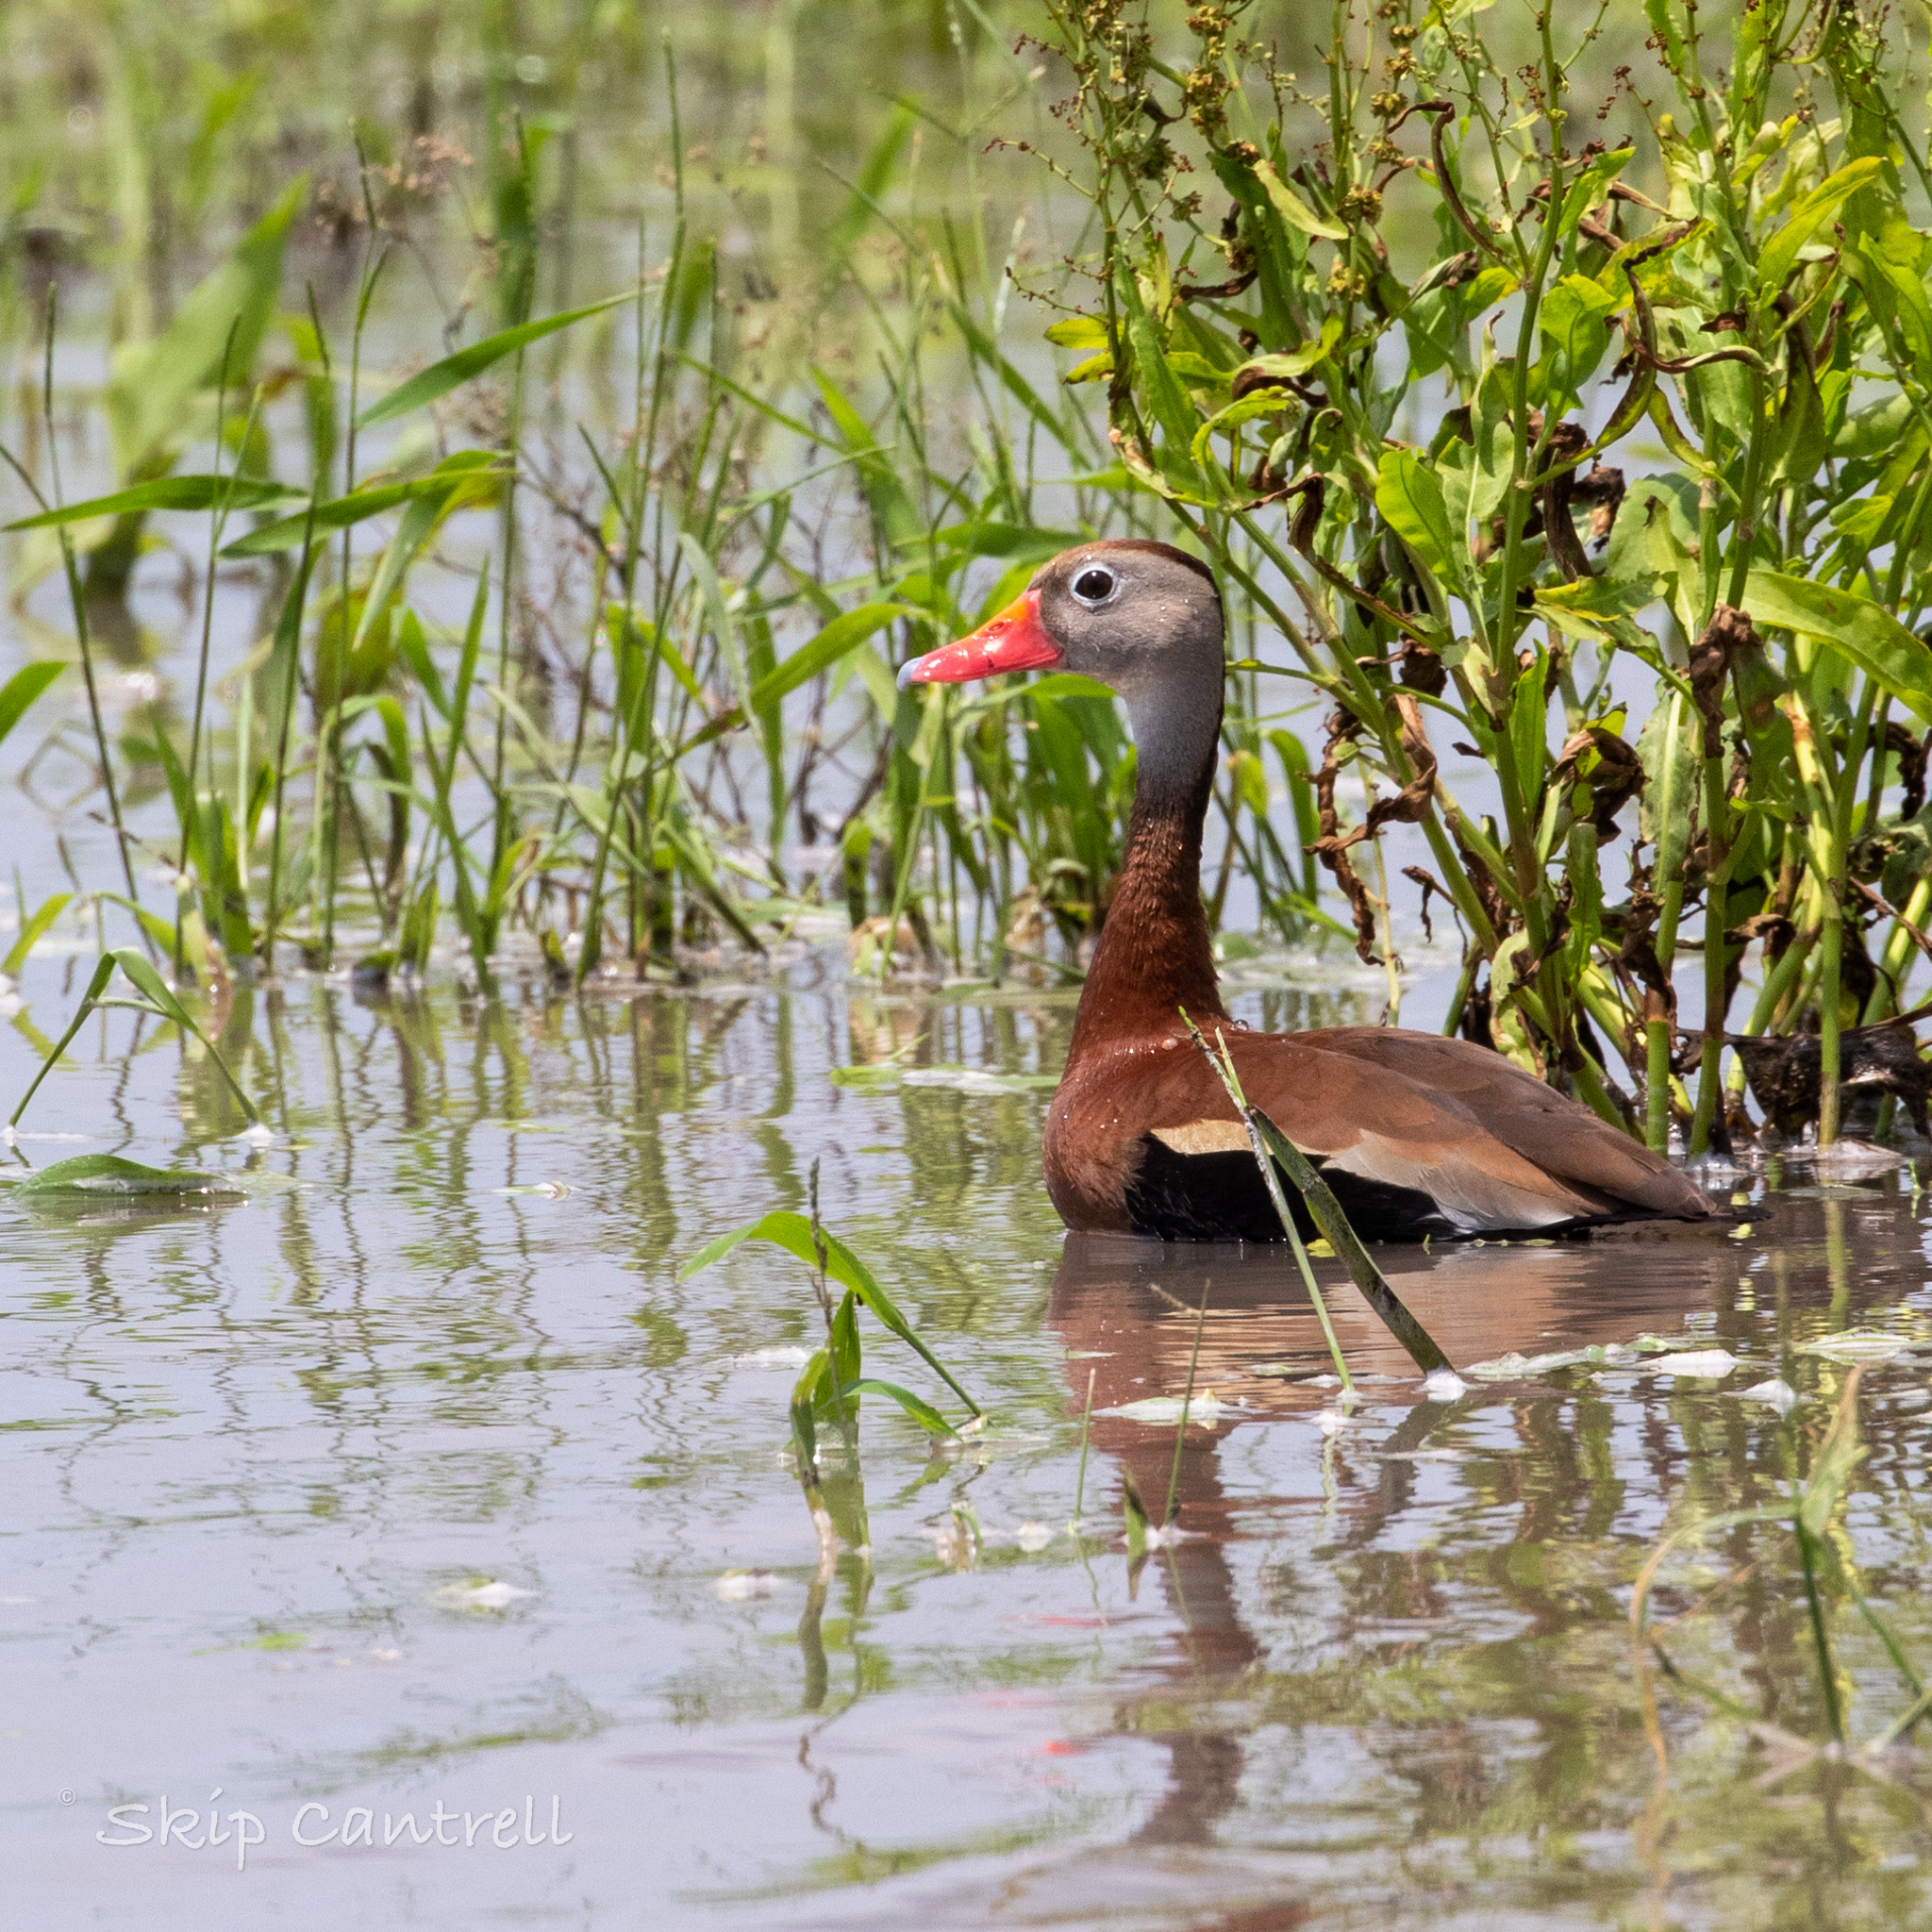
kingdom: Animalia
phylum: Chordata
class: Aves
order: Anseriformes
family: Anatidae
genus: Dendrocygna
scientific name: Dendrocygna autumnalis
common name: Black-bellied whistling duck
